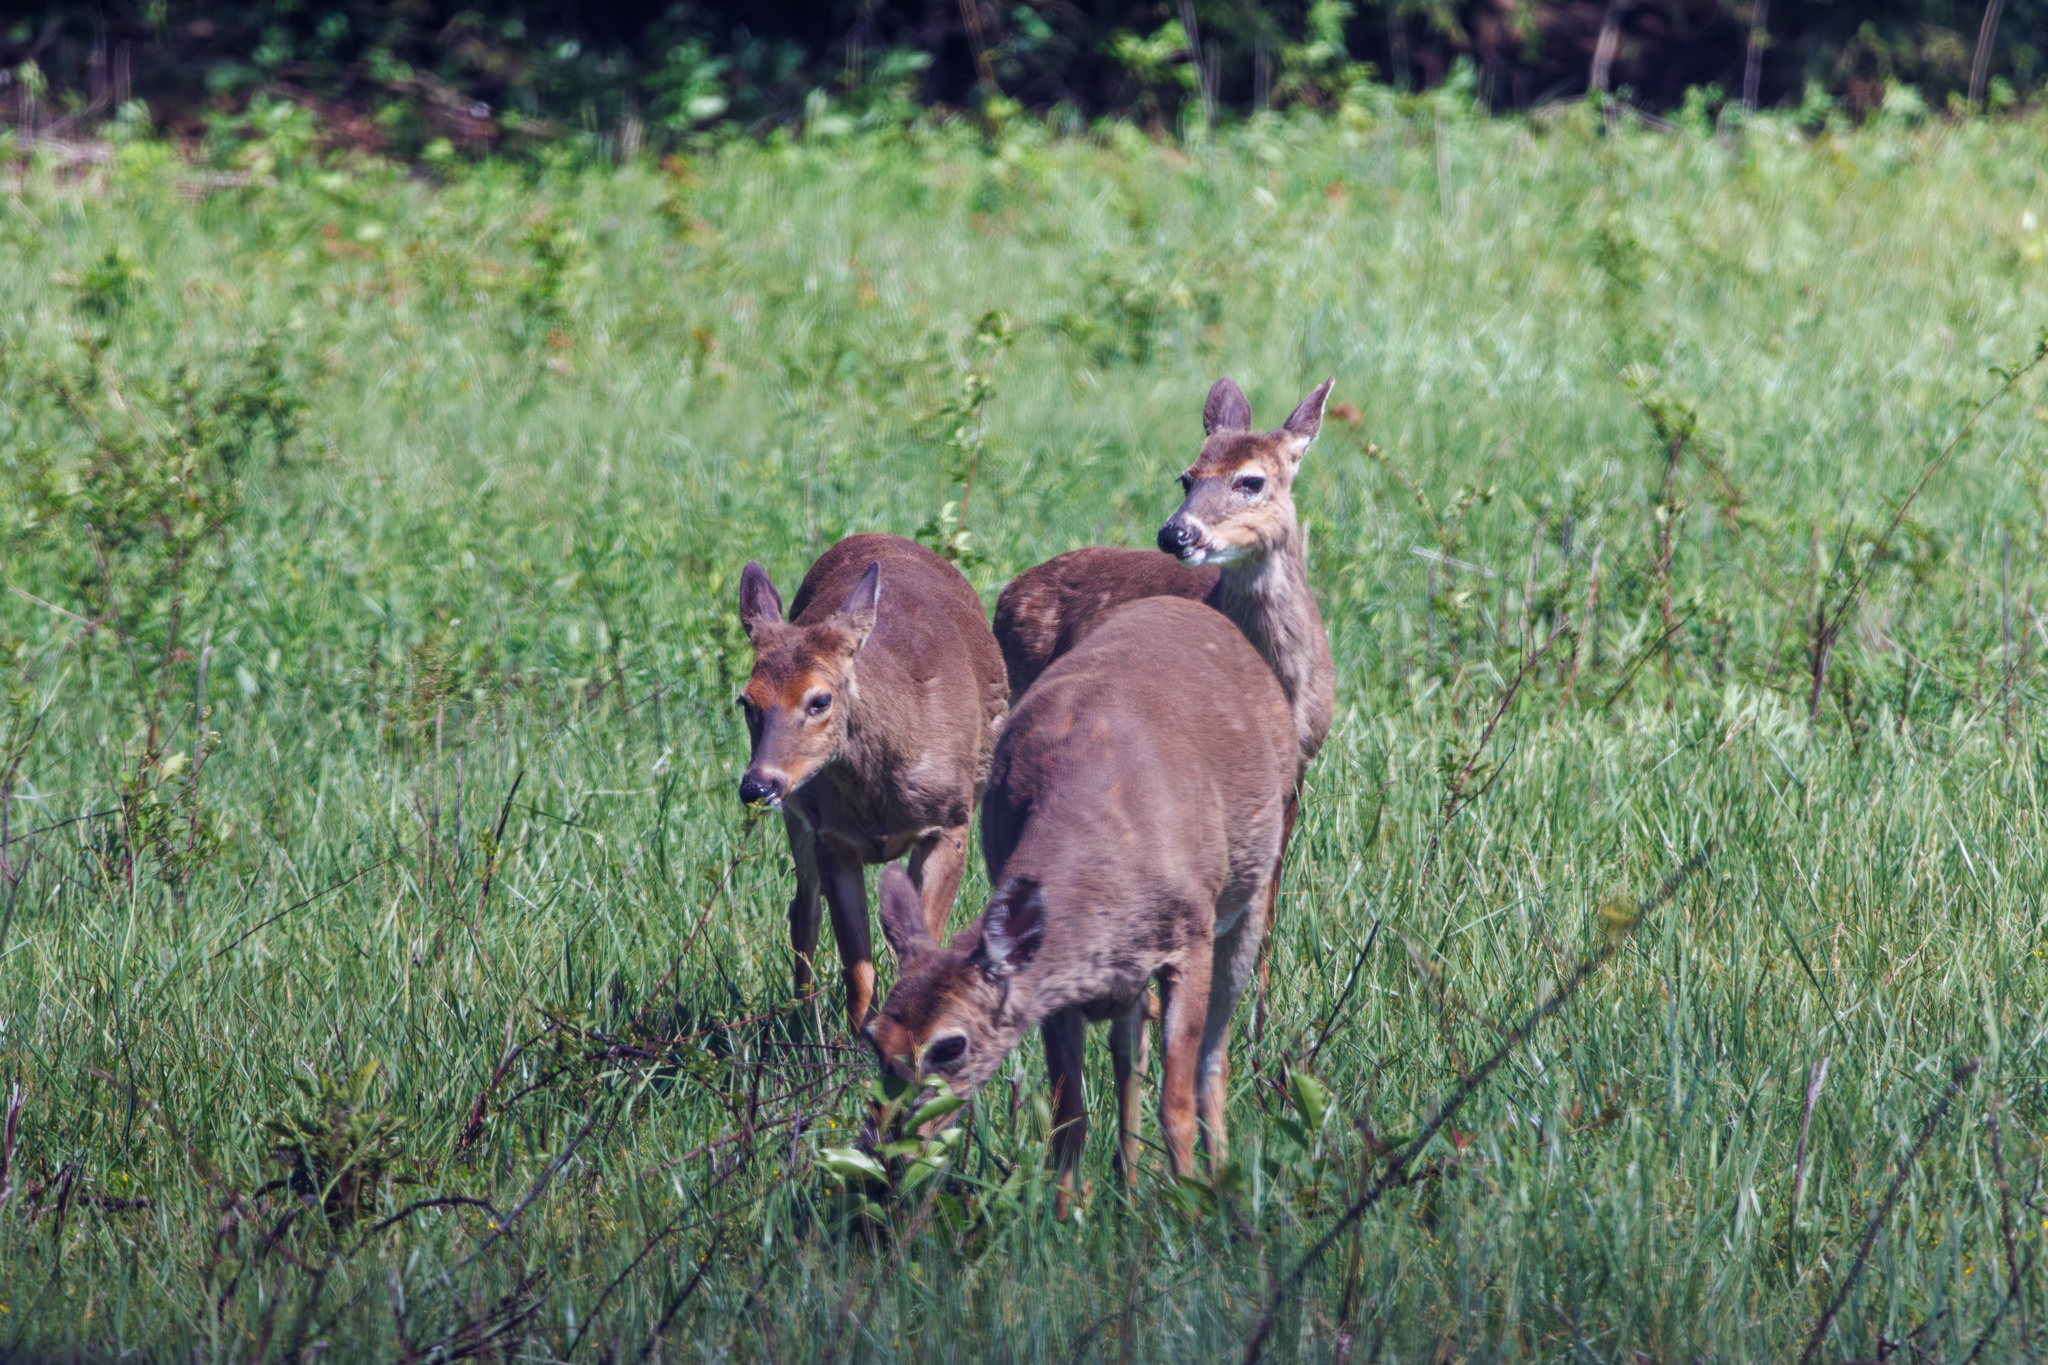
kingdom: Animalia
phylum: Chordata
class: Mammalia
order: Artiodactyla
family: Cervidae
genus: Odocoileus
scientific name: Odocoileus virginianus
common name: White-tailed deer
